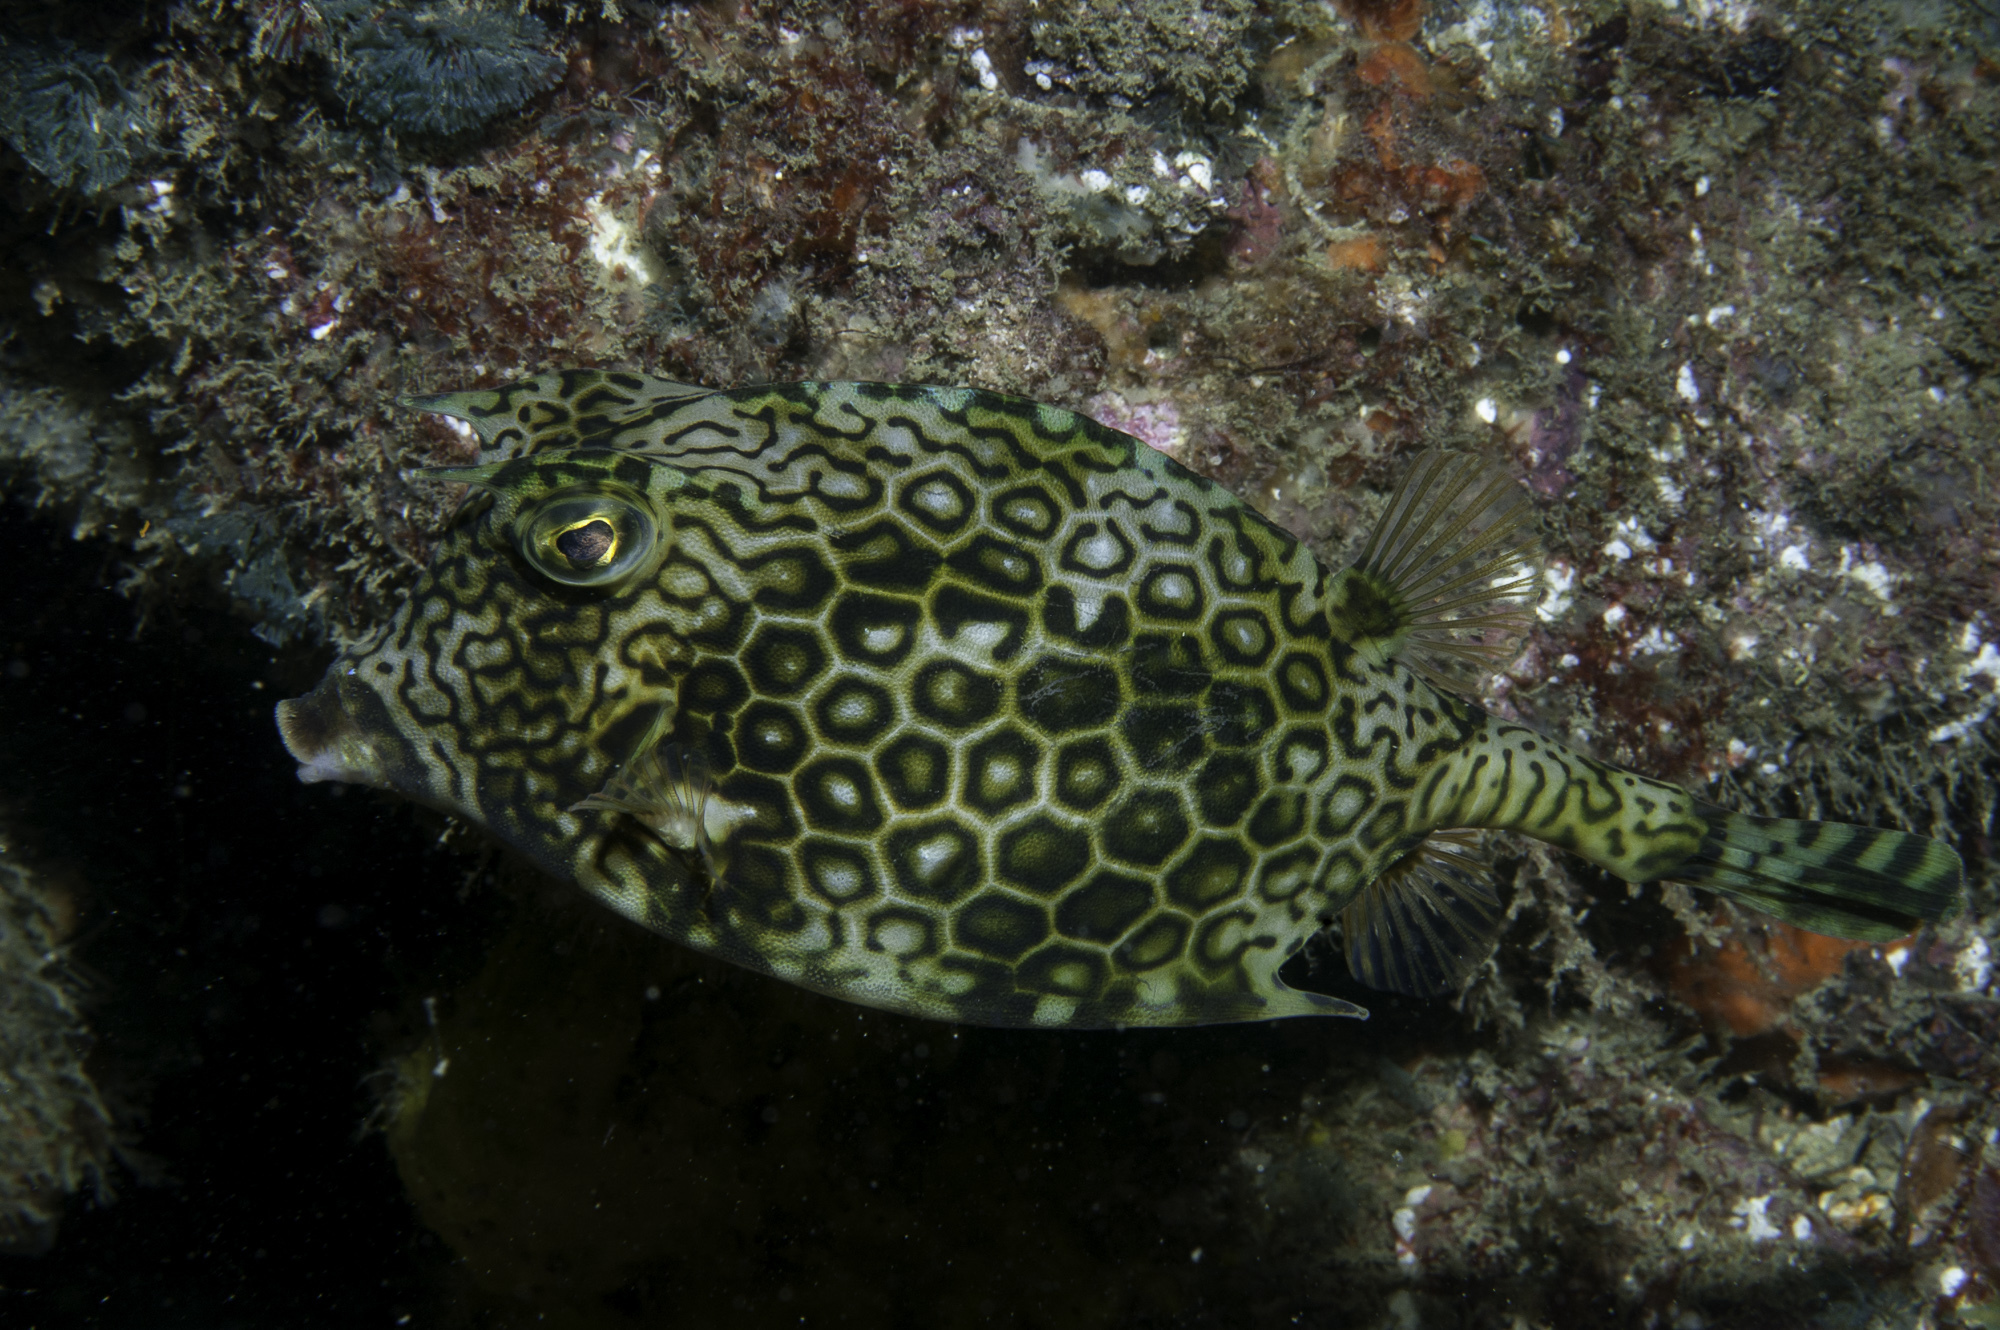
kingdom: Animalia
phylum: Chordata
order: Tetraodontiformes
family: Ostraciidae
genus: Acanthostracion
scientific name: Acanthostracion polygonius
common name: Honeycomb cowfish
